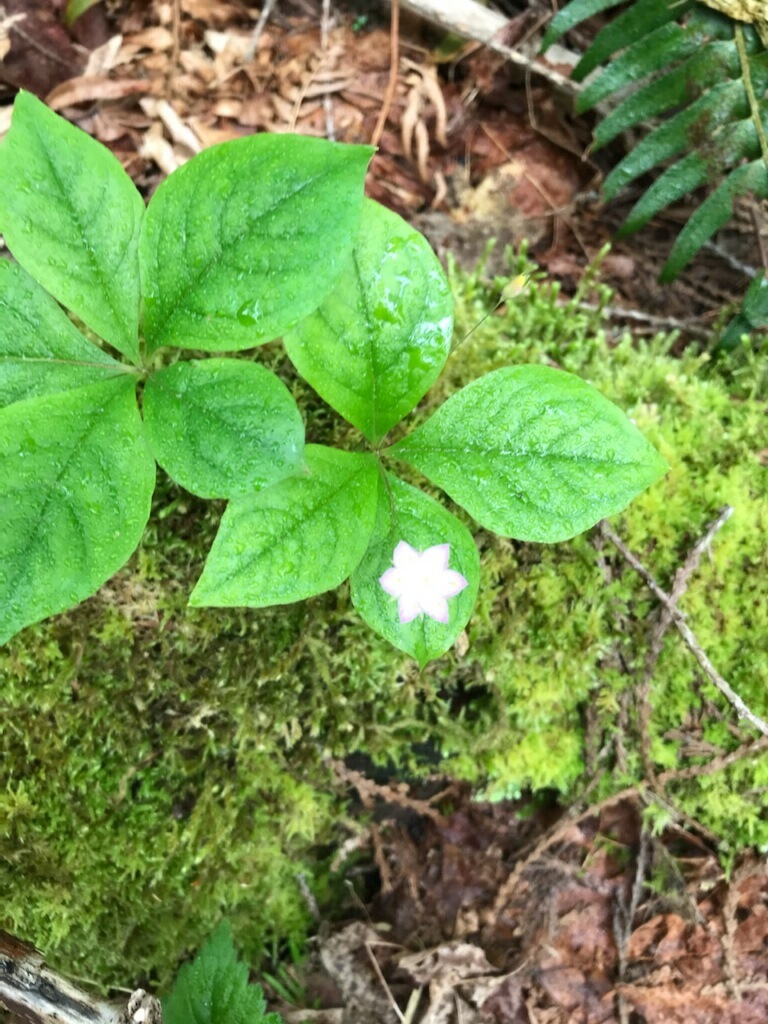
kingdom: Plantae
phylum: Tracheophyta
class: Magnoliopsida
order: Ericales
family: Primulaceae
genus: Lysimachia
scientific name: Lysimachia latifolia
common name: Pacific starflower
